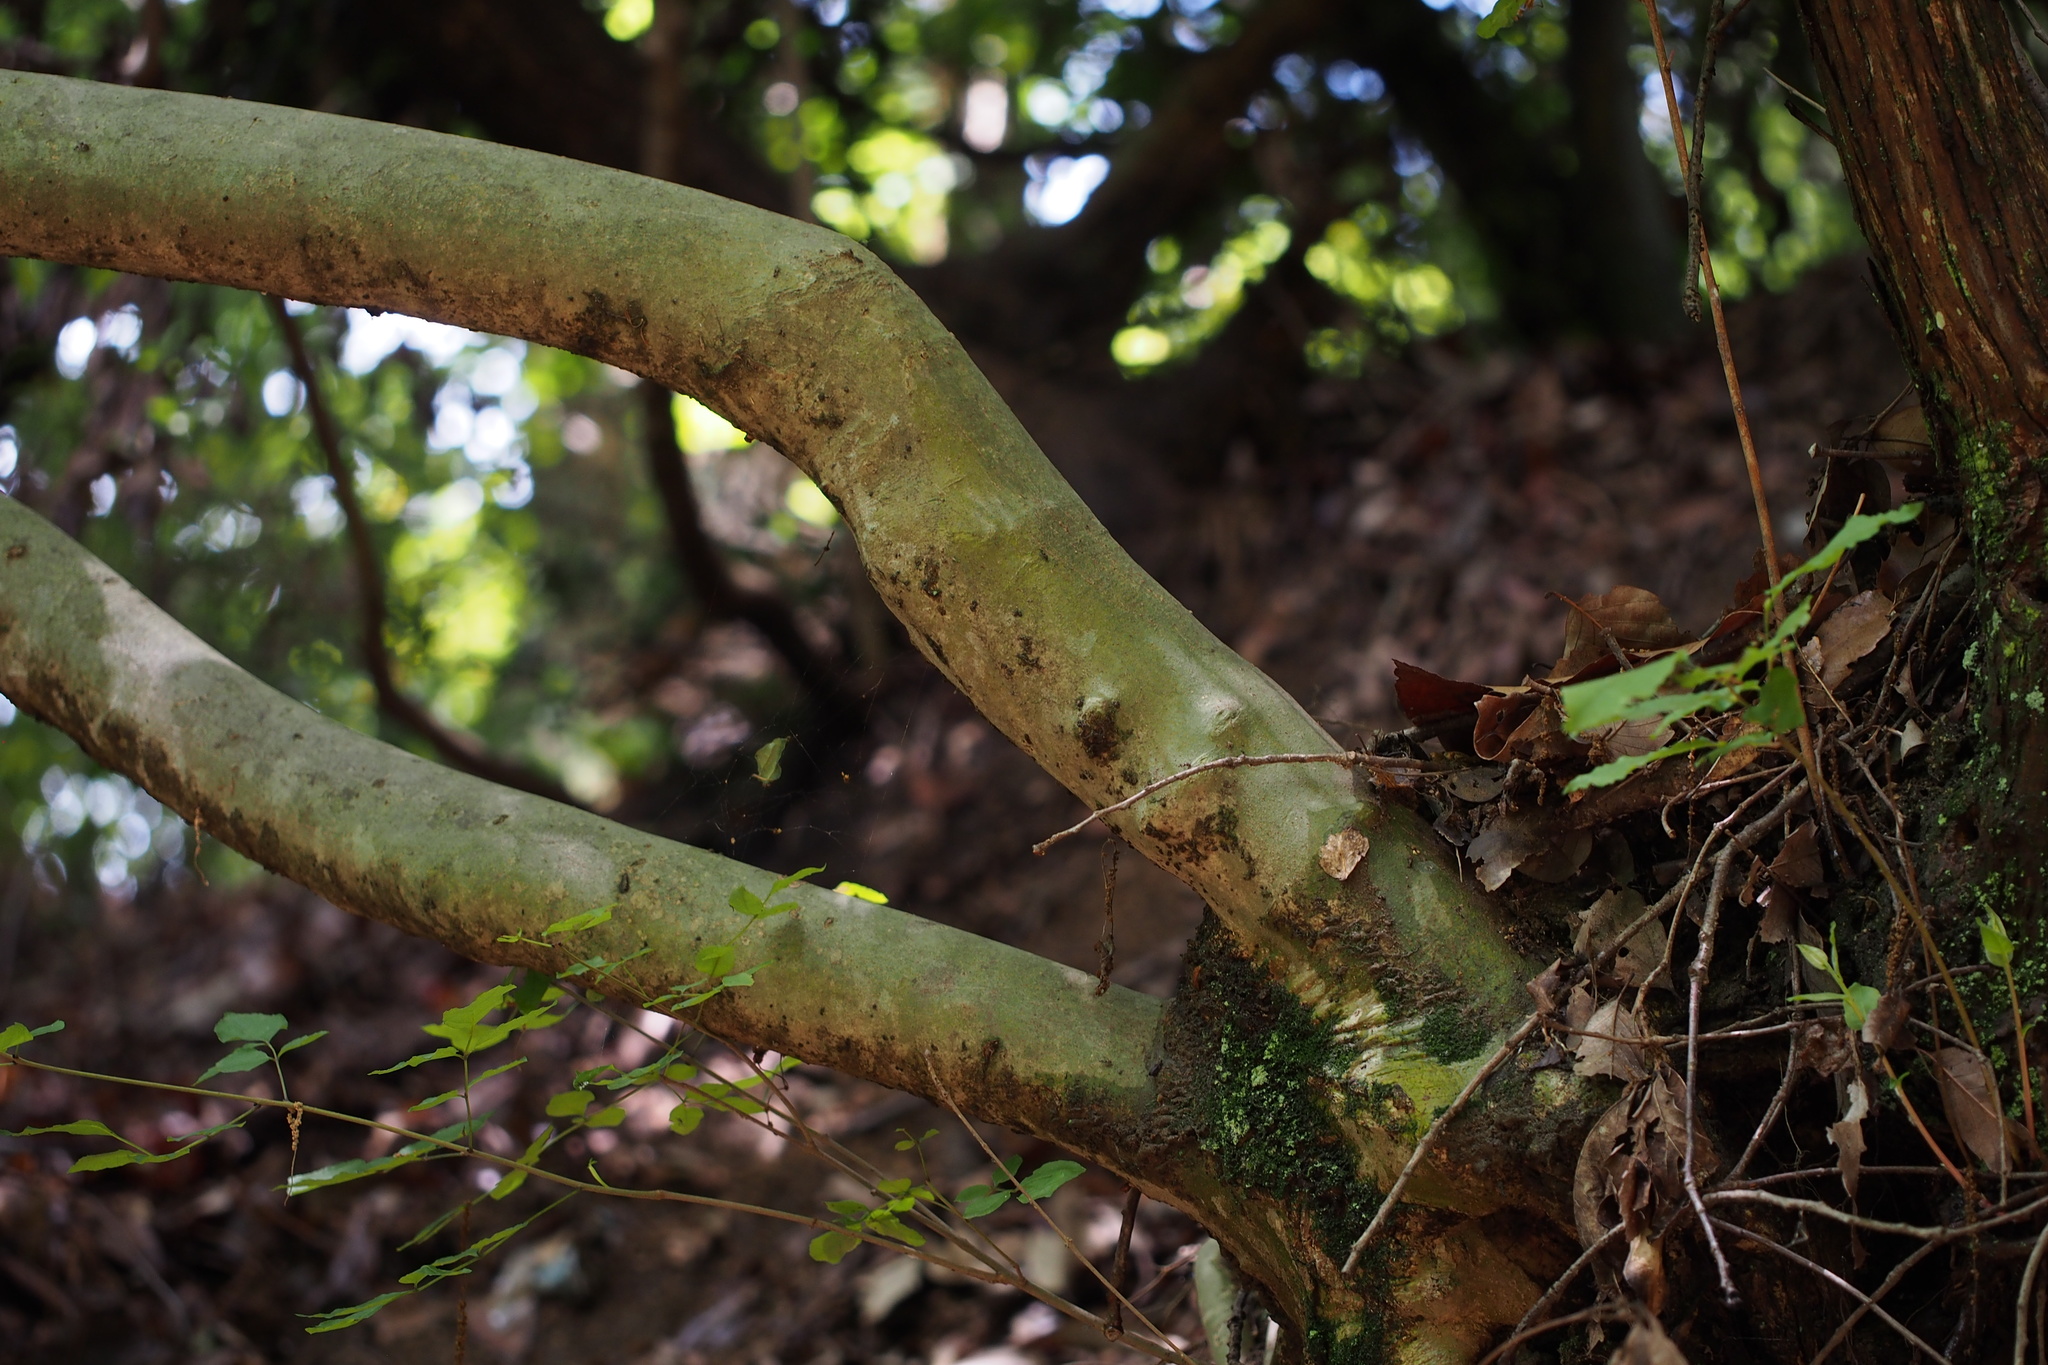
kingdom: Plantae
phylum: Tracheophyta
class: Magnoliopsida
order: Lamiales
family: Oleaceae
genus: Fraxinus
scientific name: Fraxinus sieboldiana
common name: Chinese flowering ash
